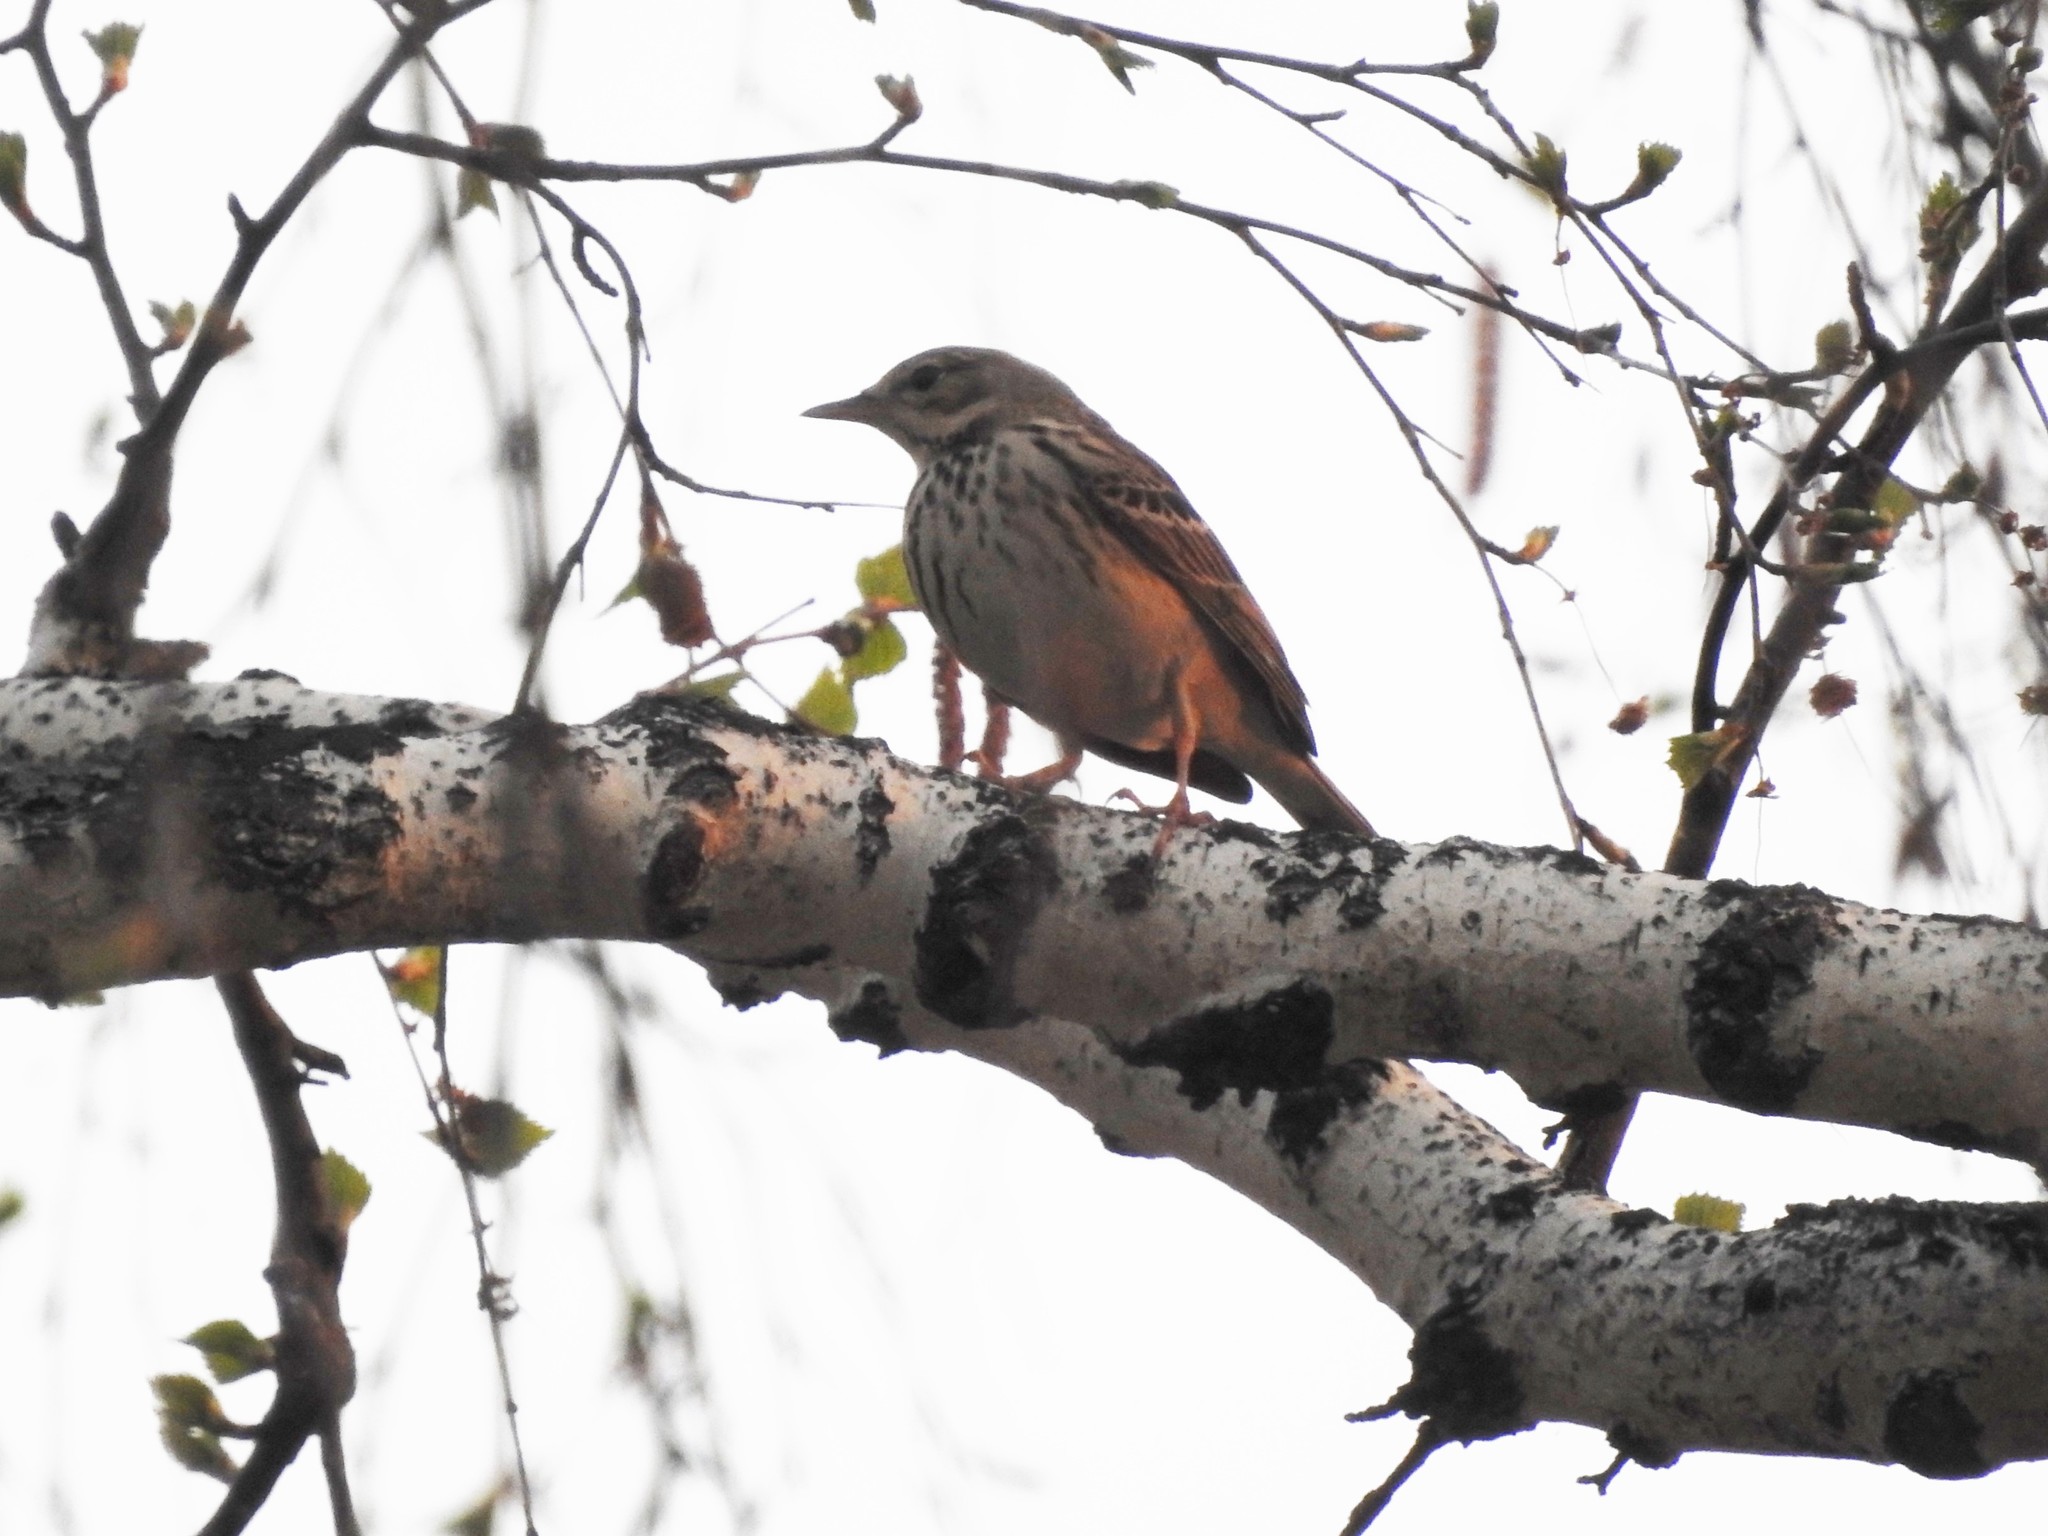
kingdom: Animalia
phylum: Chordata
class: Aves
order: Passeriformes
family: Motacillidae
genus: Anthus
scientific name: Anthus trivialis
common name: Tree pipit
